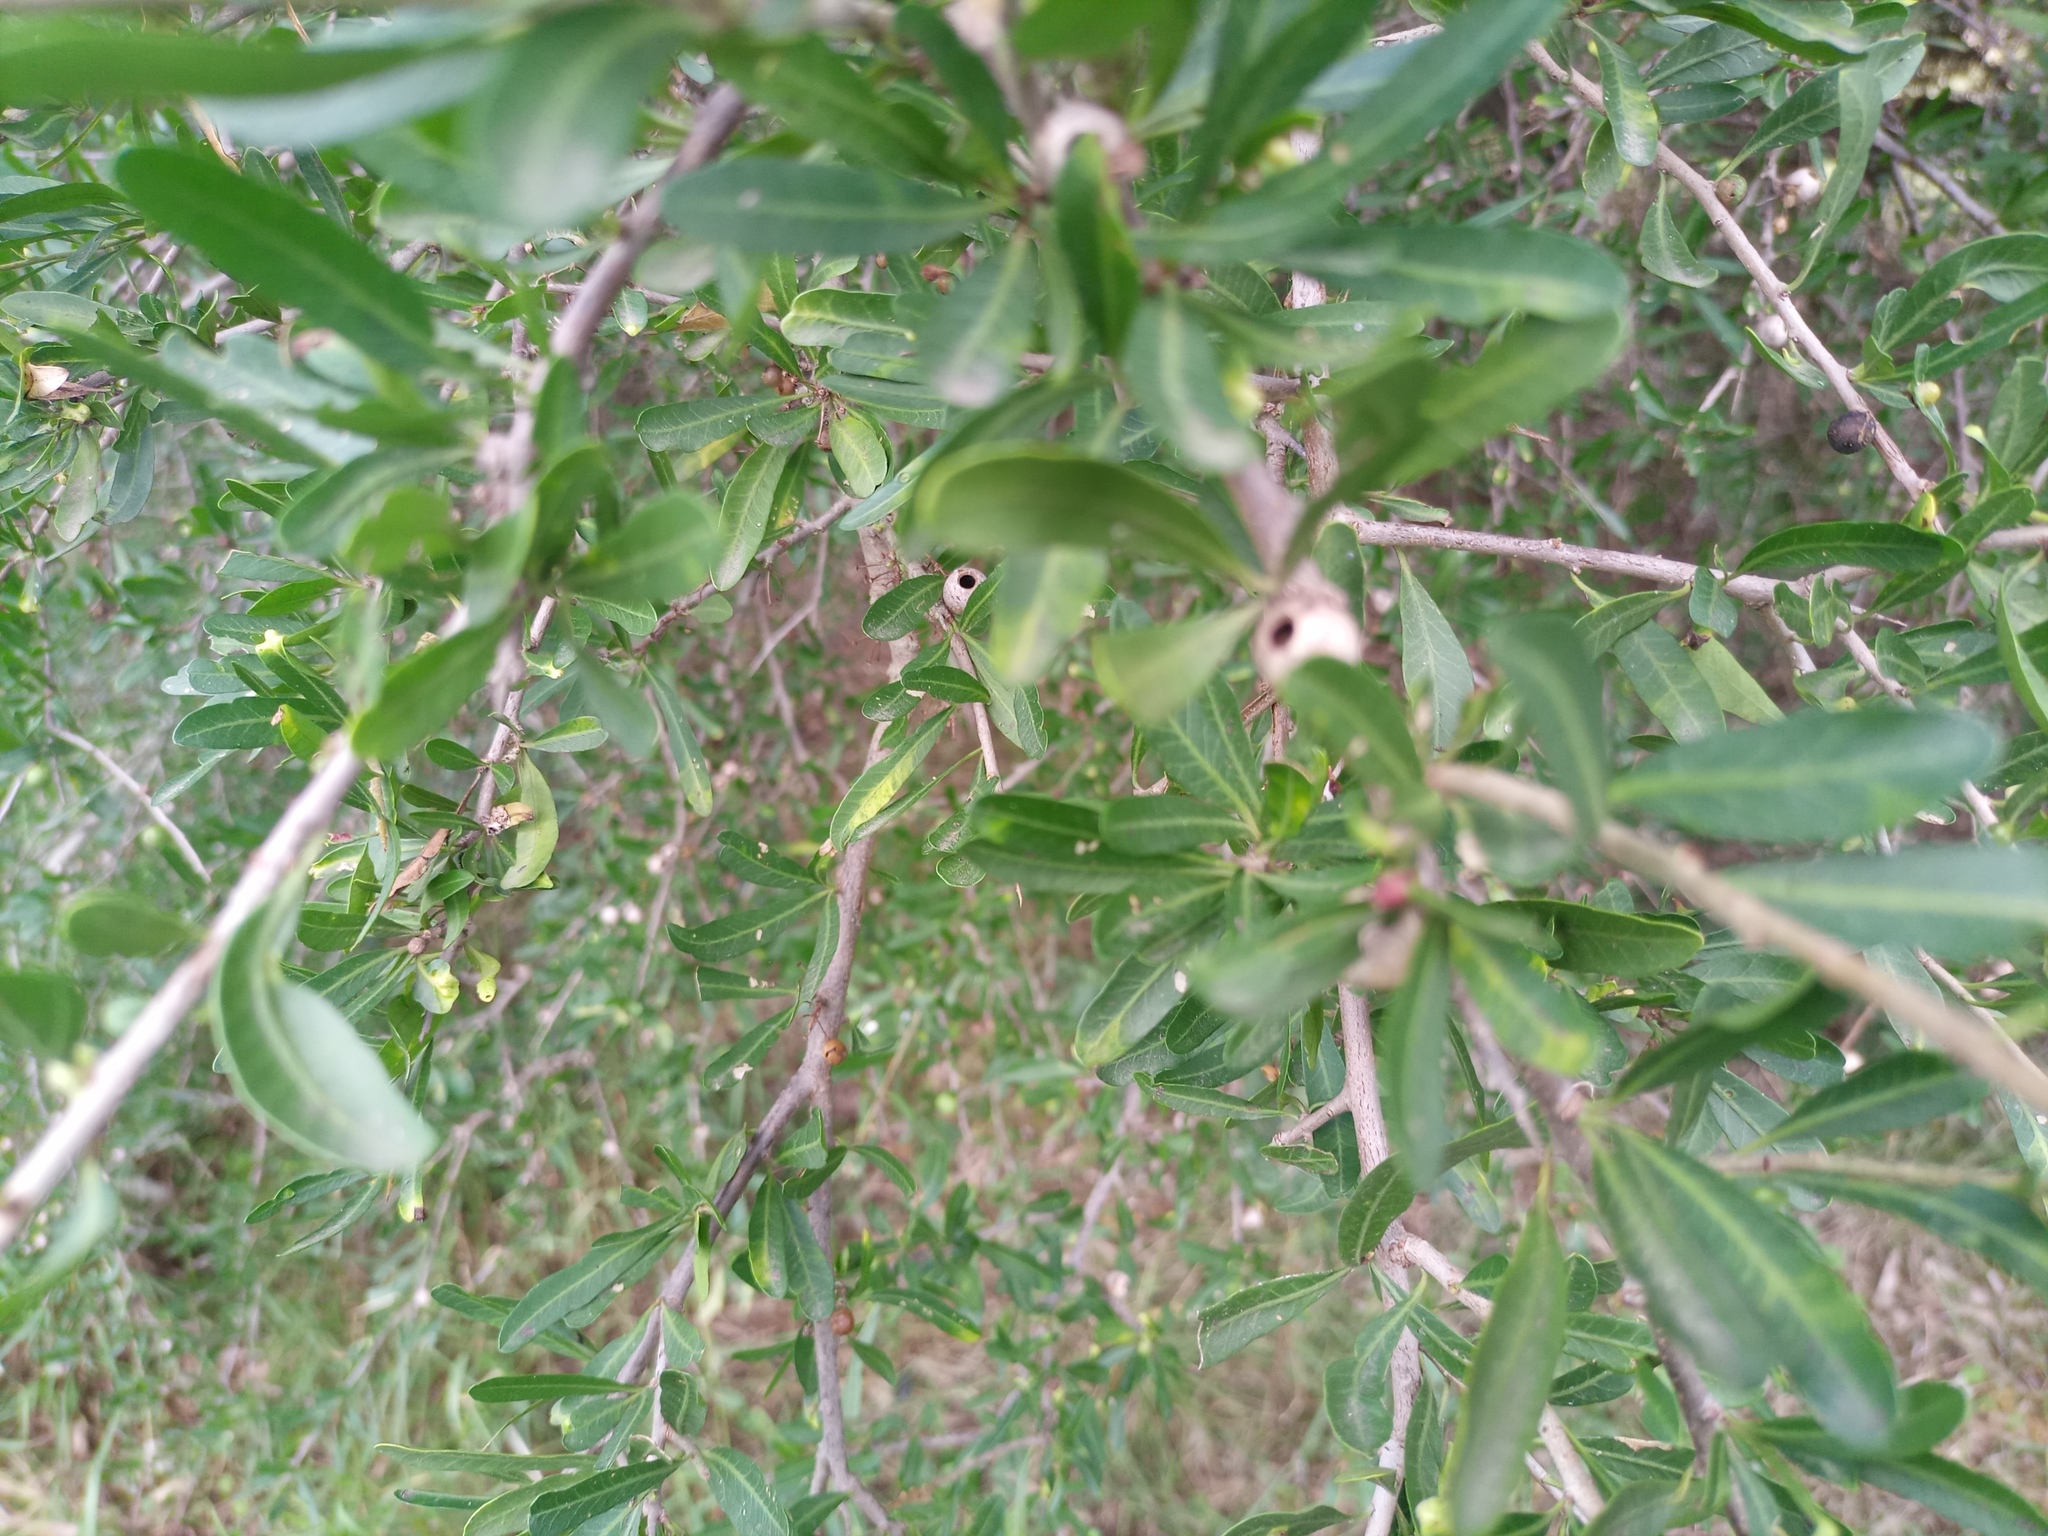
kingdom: Plantae
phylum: Tracheophyta
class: Magnoliopsida
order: Sapindales
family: Anacardiaceae
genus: Schinus
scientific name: Schinus longifolia
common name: Longleaf peppertree
